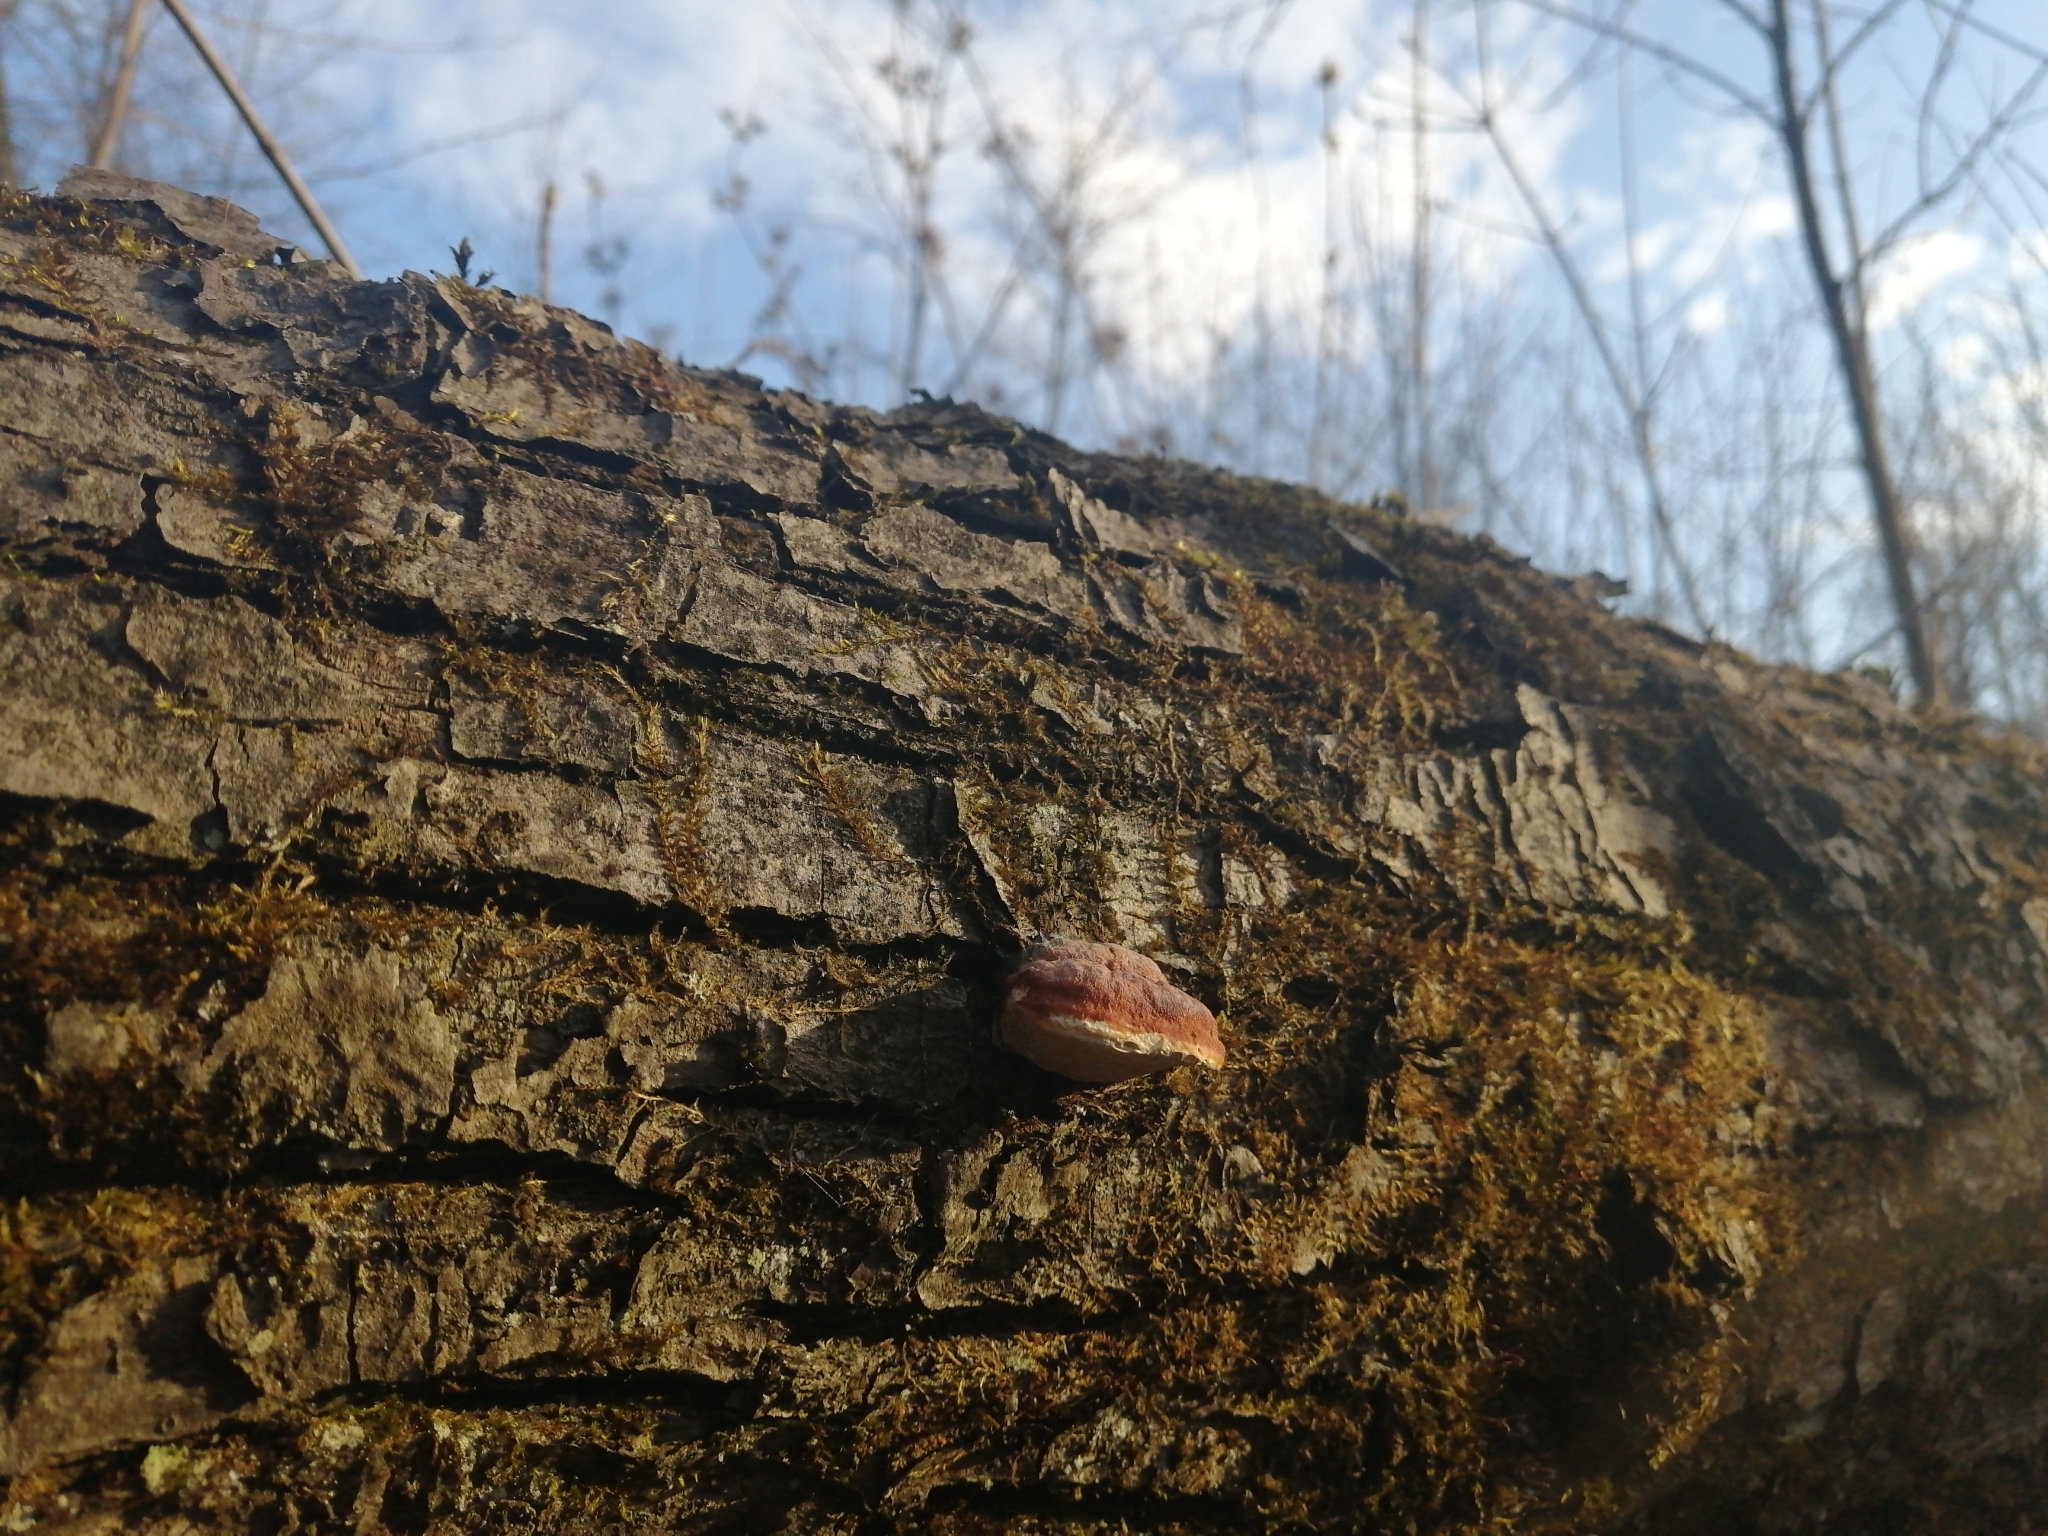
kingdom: Fungi
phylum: Basidiomycota
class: Agaricomycetes
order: Polyporales
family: Fomitopsidaceae
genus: Fomitopsis
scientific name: Fomitopsis pinicola
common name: Red-belted bracket
